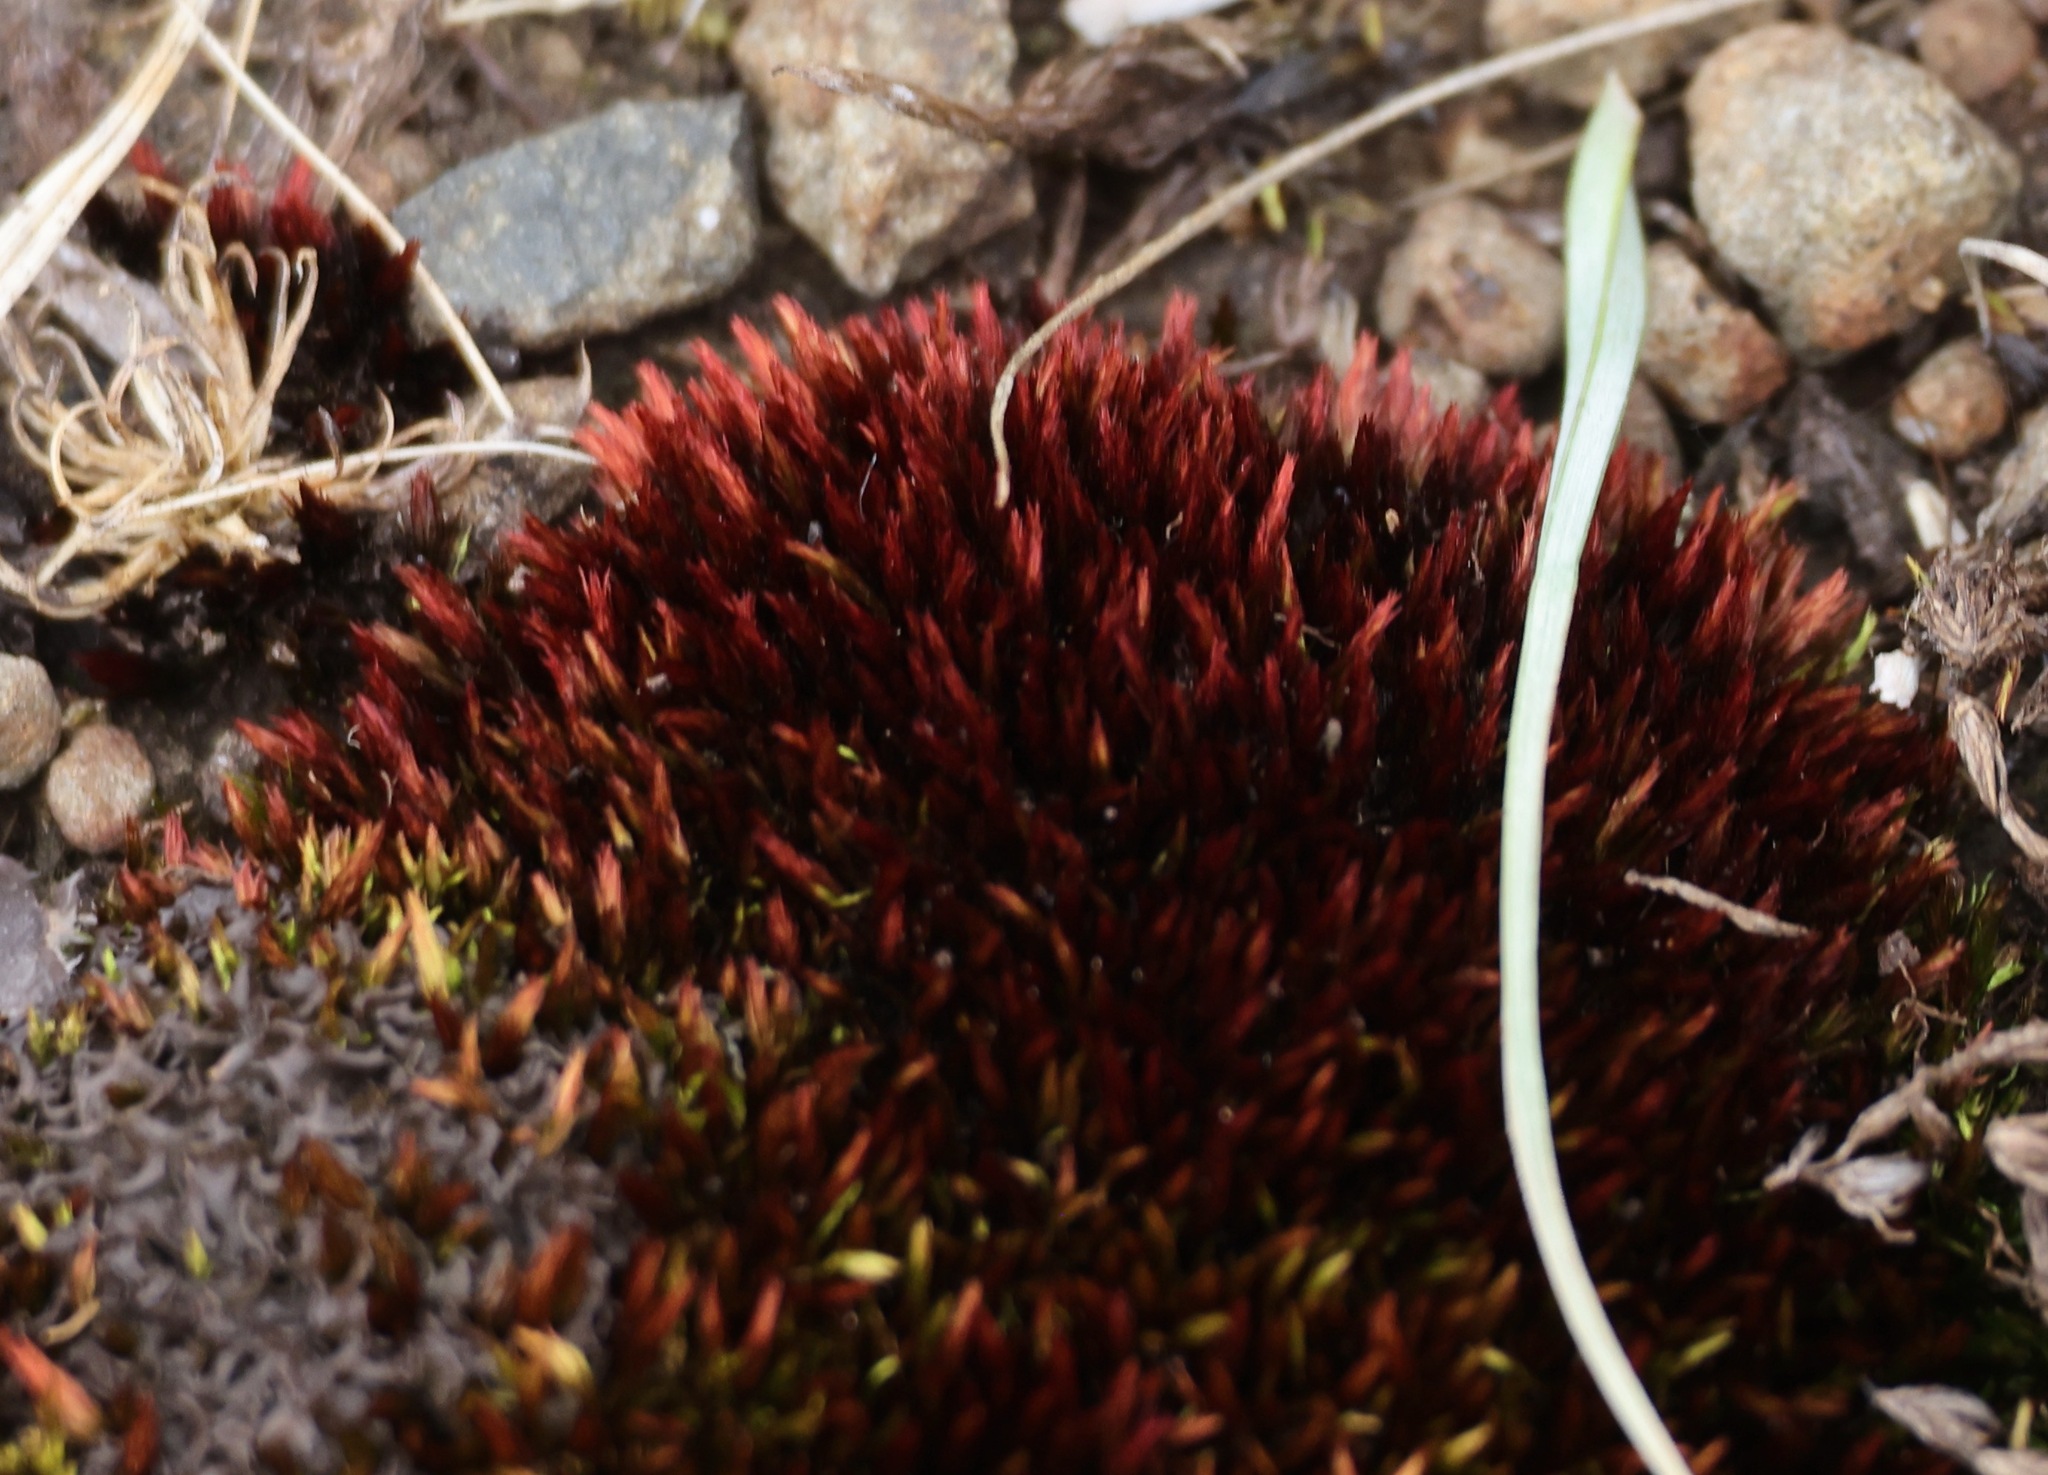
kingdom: Plantae
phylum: Bryophyta
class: Bryopsida
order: Bryales
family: Bryaceae
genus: Imbribryum
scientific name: Imbribryum alpinum
